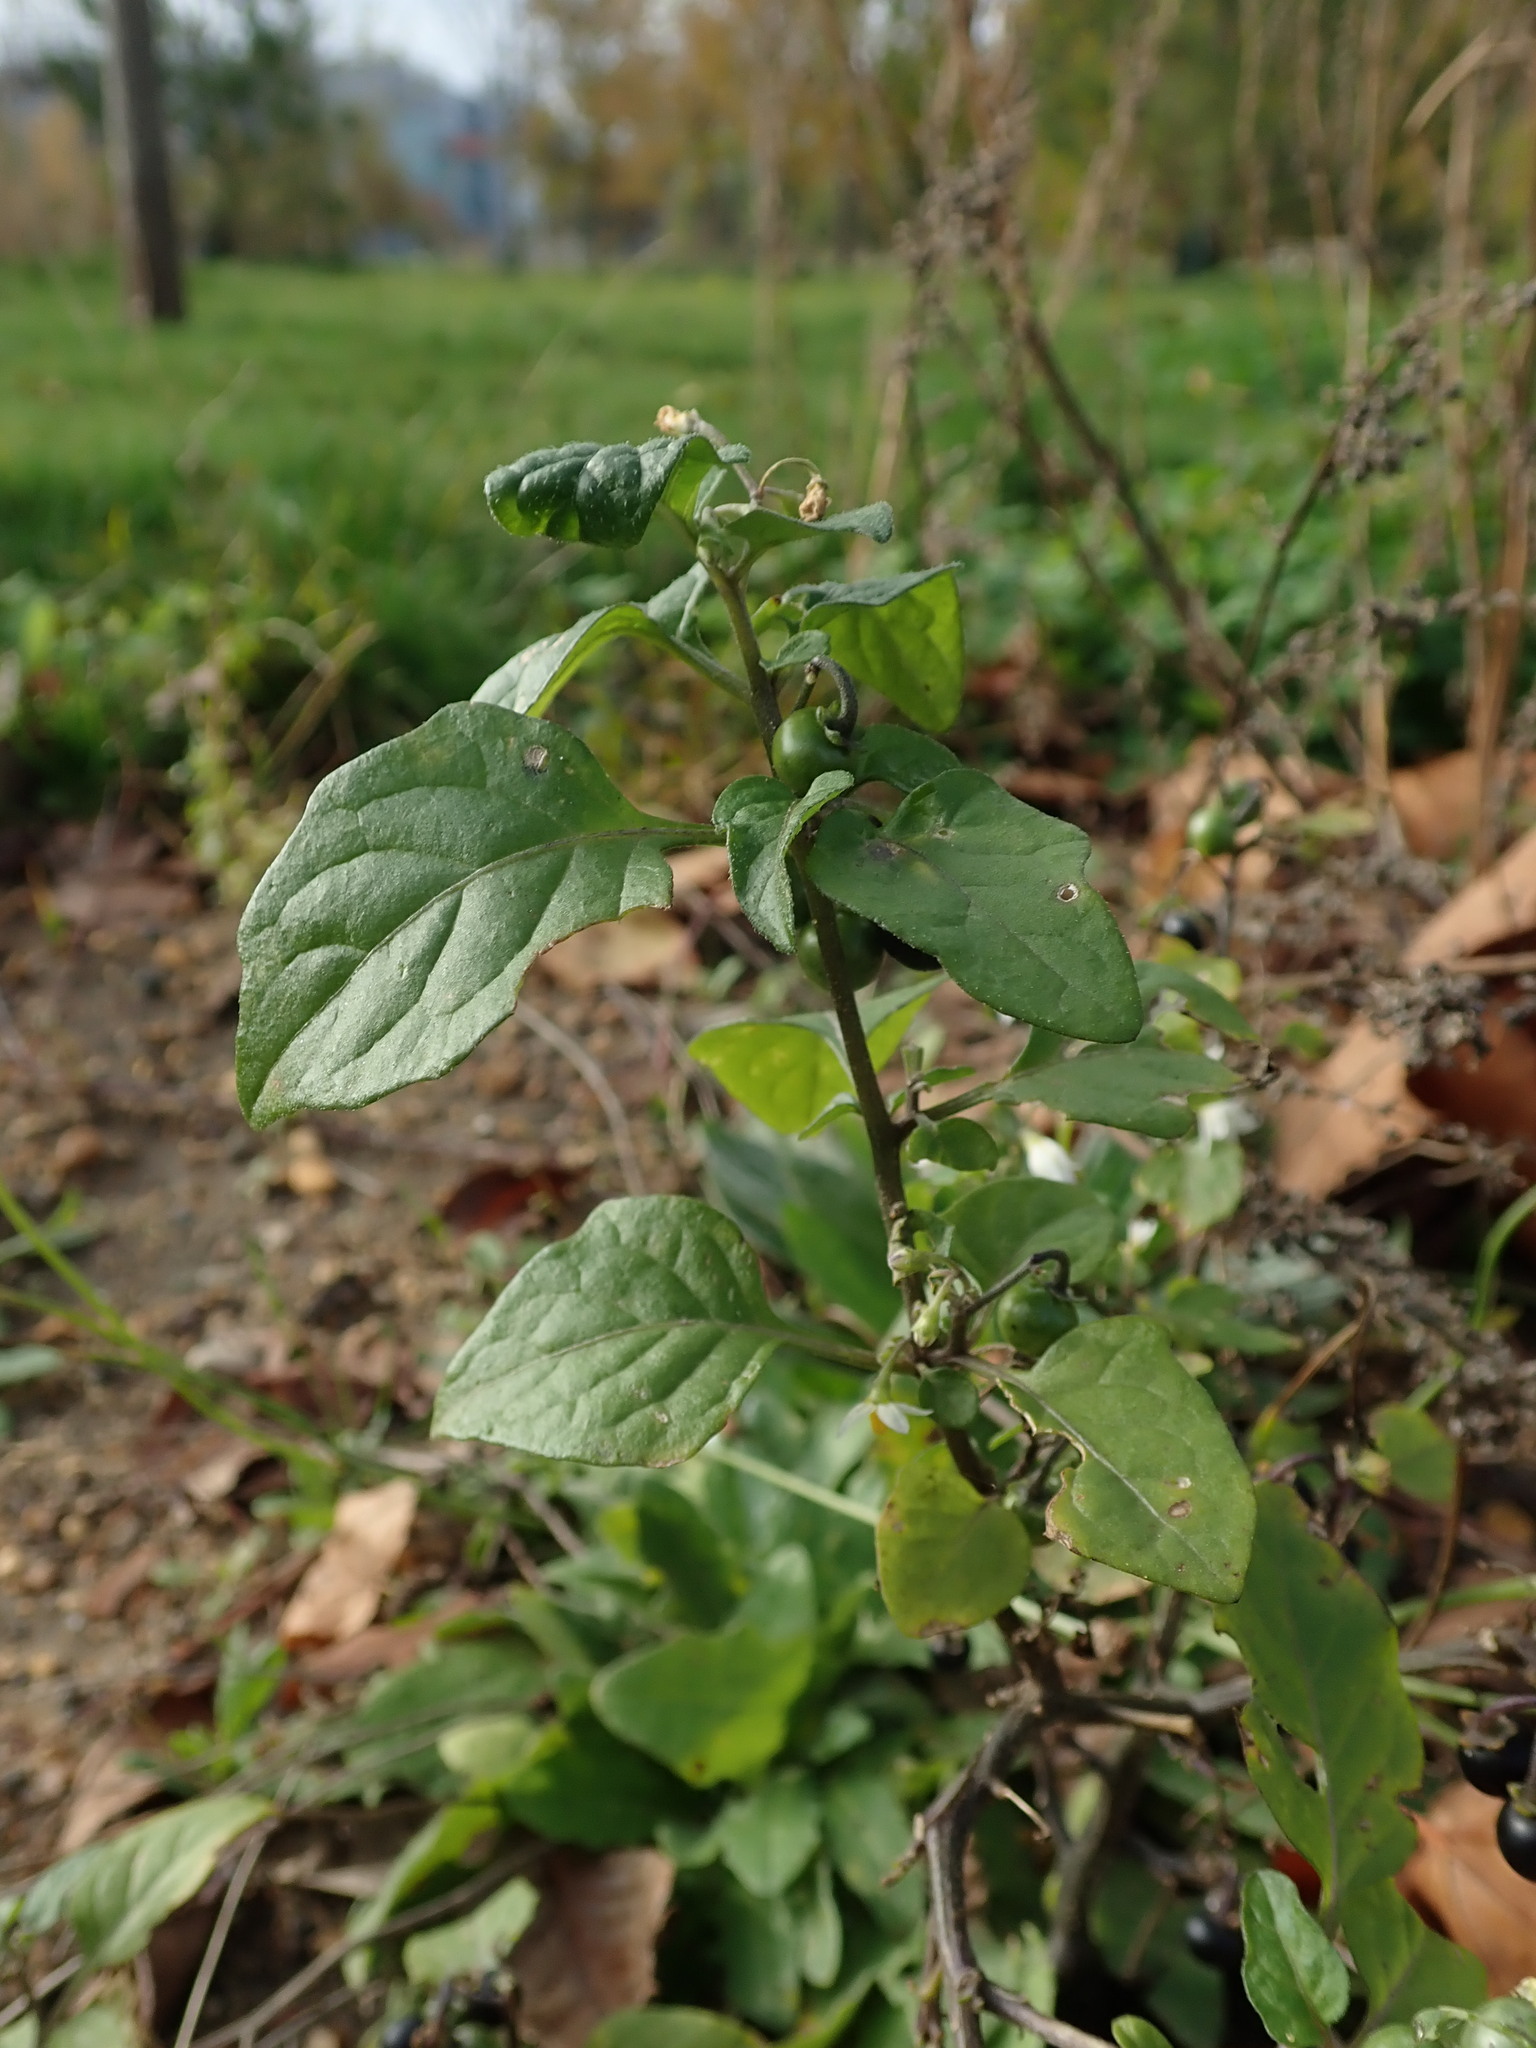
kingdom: Plantae
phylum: Tracheophyta
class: Magnoliopsida
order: Solanales
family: Solanaceae
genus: Solanum
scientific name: Solanum nigrum
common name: Black nightshade
